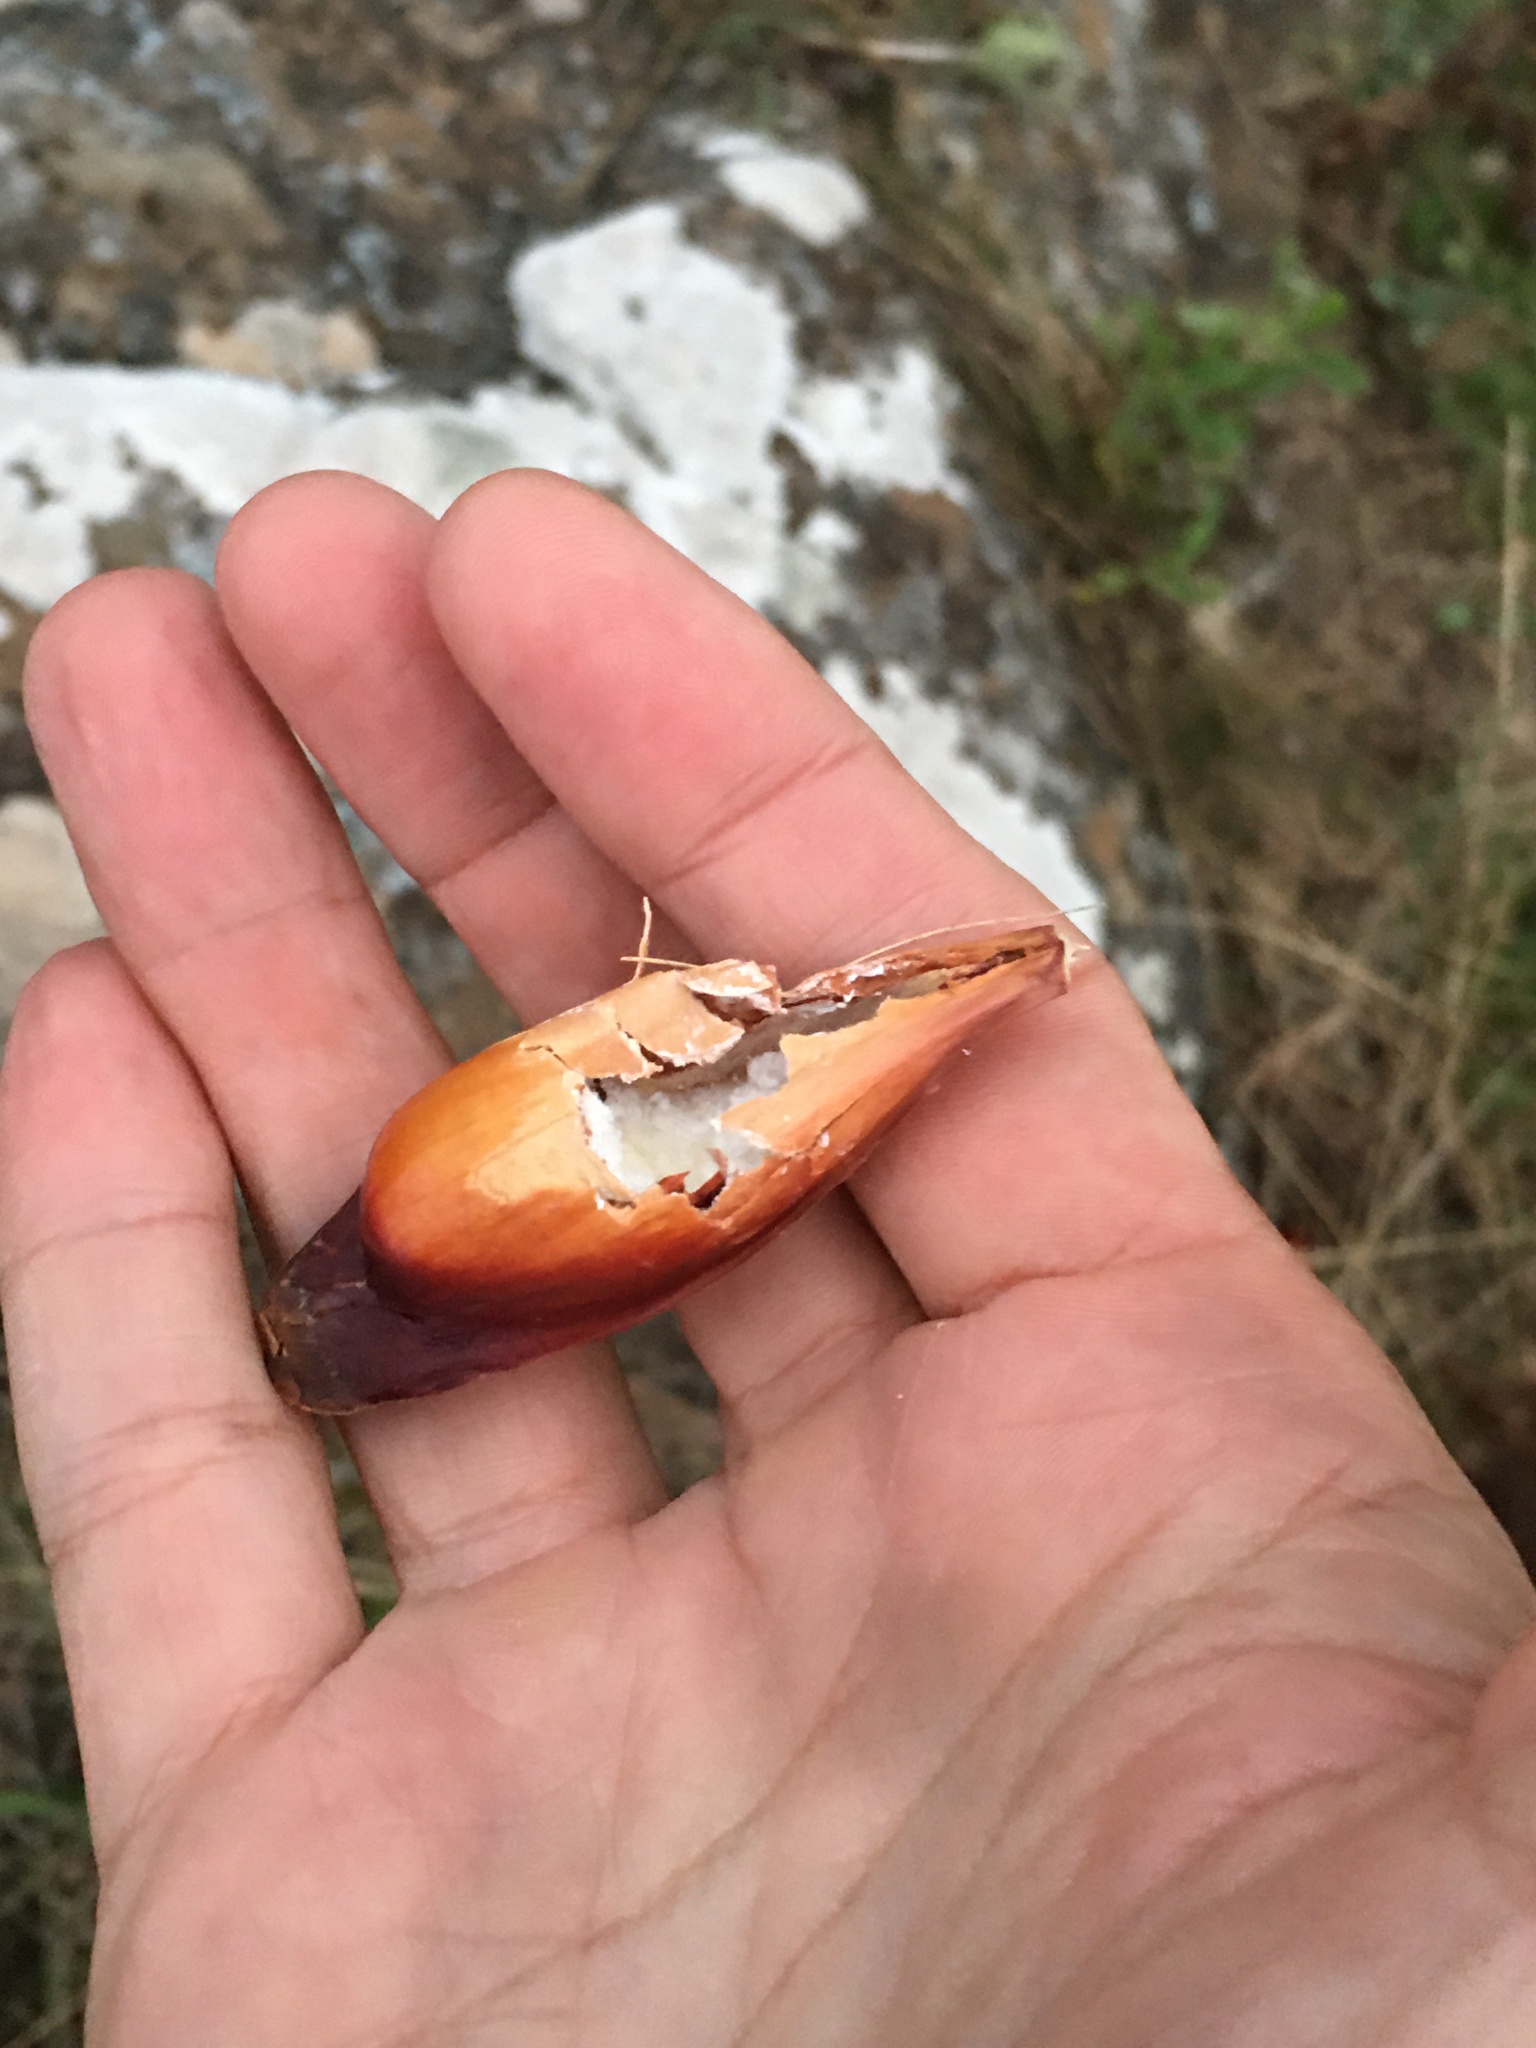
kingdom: Animalia
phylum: Chordata
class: Aves
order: Psittaciformes
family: Psittacidae
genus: Amazona
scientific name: Amazona pretrei
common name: Red-spectacled amazon
